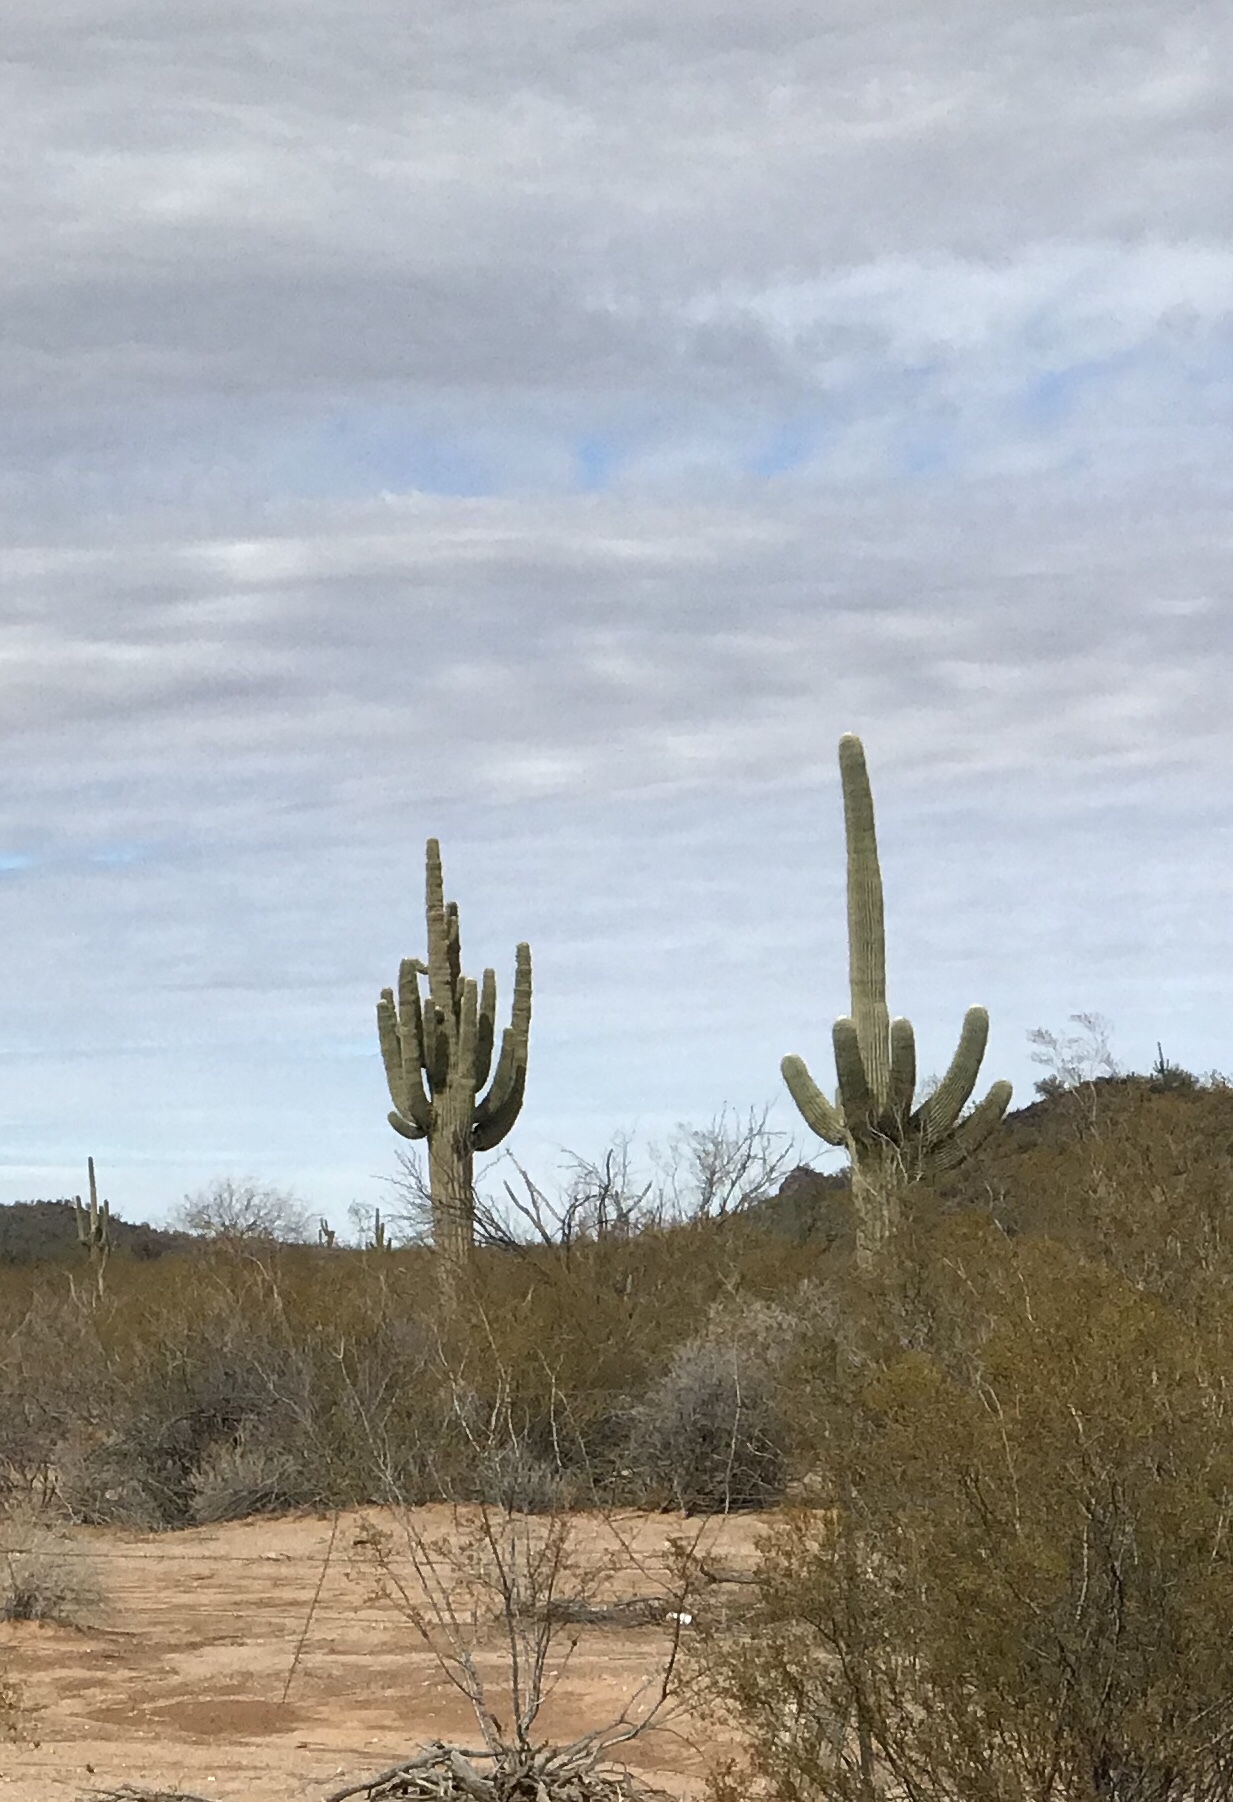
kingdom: Plantae
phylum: Tracheophyta
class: Magnoliopsida
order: Caryophyllales
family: Cactaceae
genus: Carnegiea
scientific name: Carnegiea gigantea
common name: Saguaro
